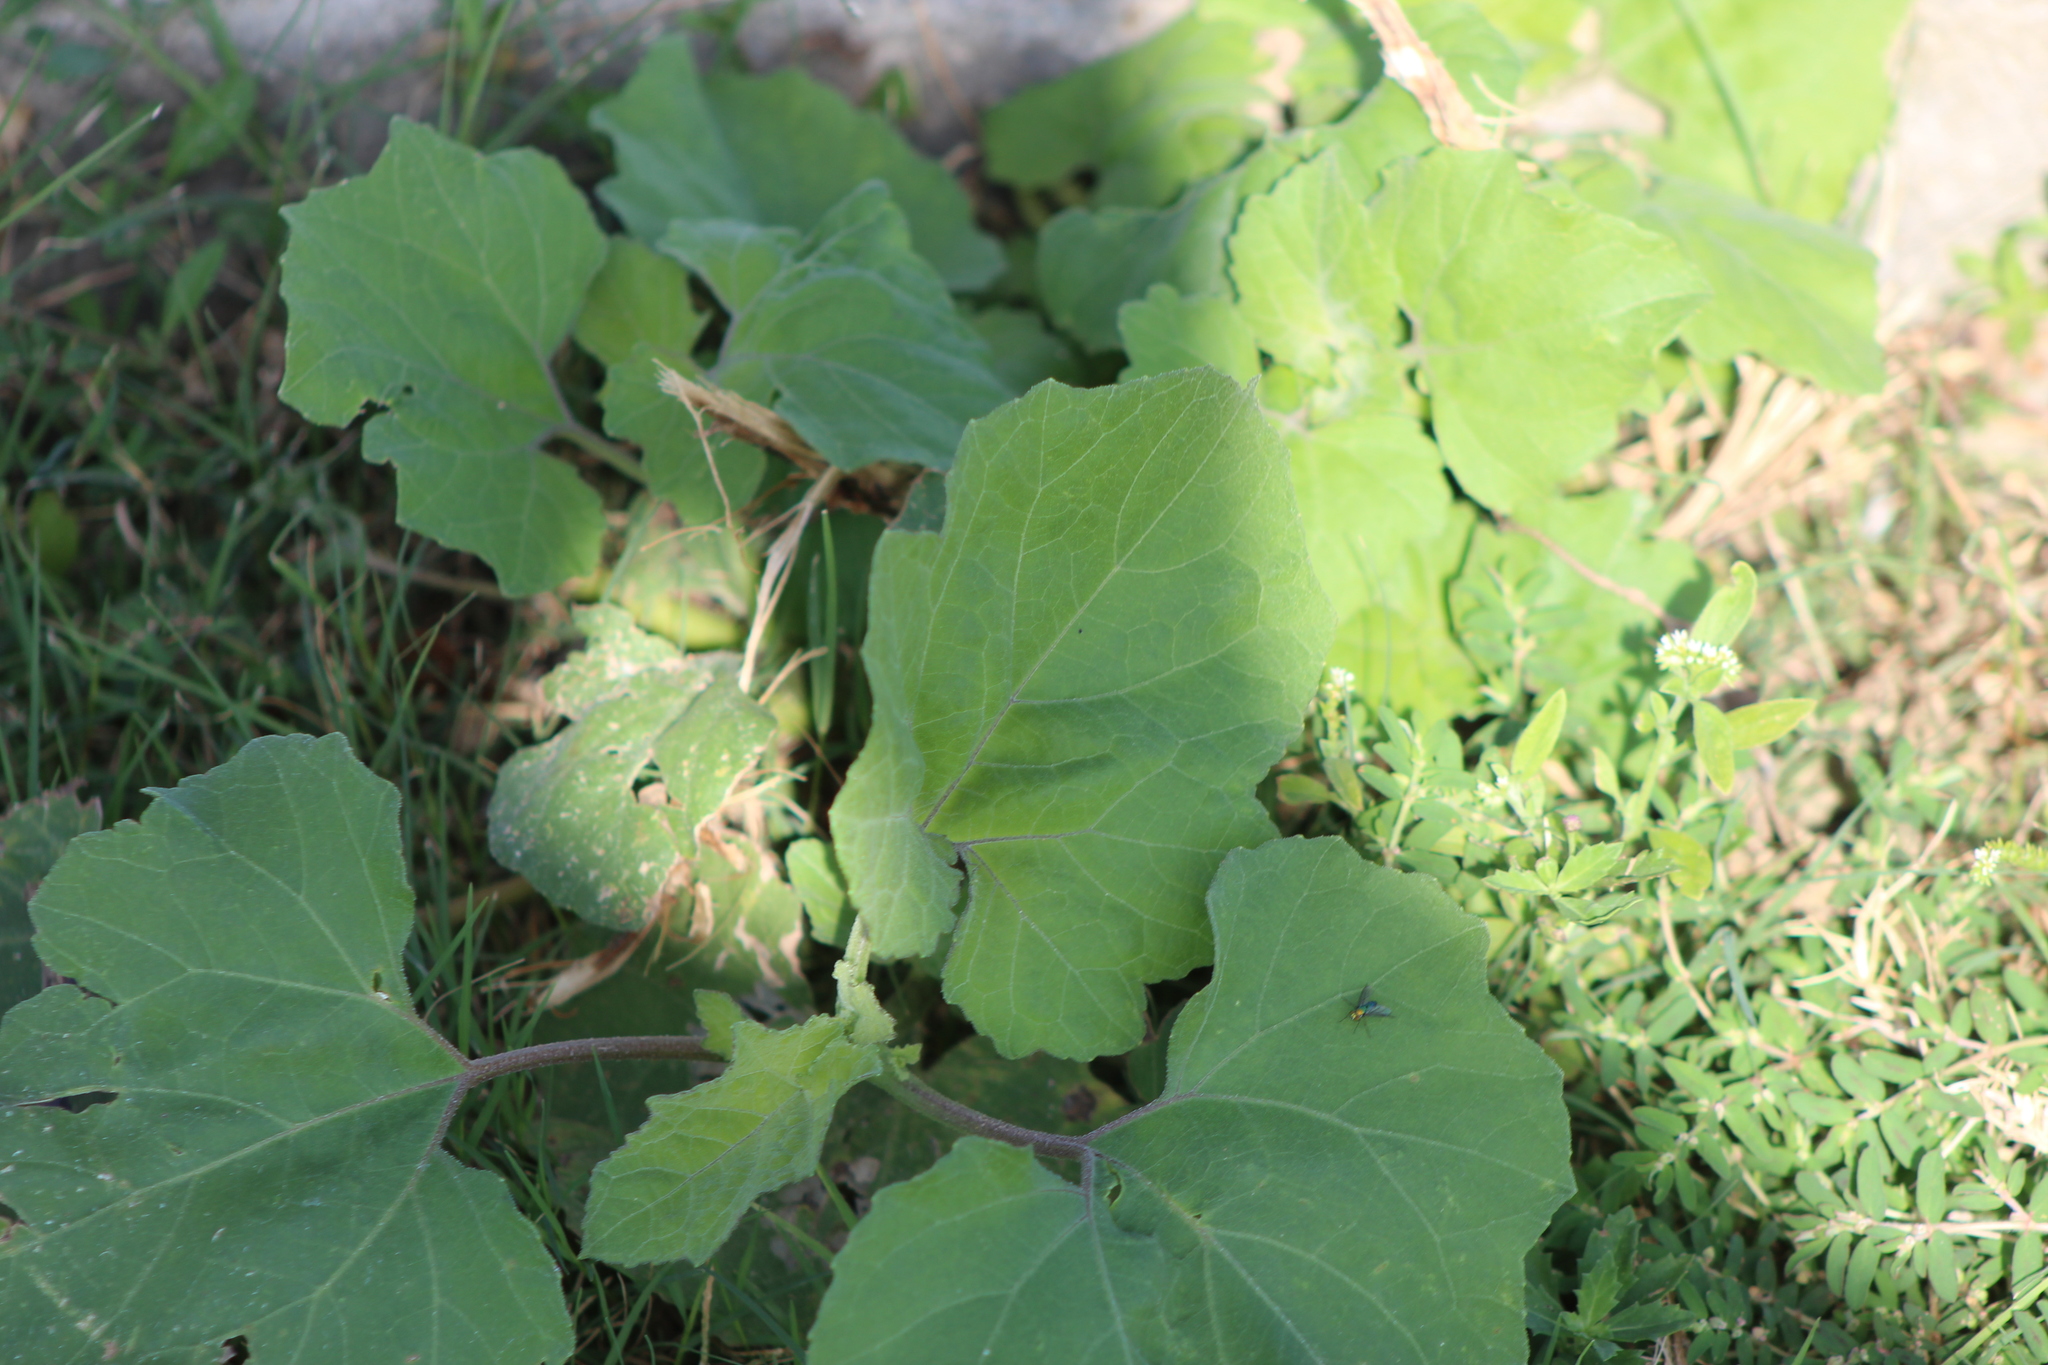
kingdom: Plantae
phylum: Tracheophyta
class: Magnoliopsida
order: Asterales
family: Asteraceae
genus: Xanthium
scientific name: Xanthium strumarium
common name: Rough cocklebur
